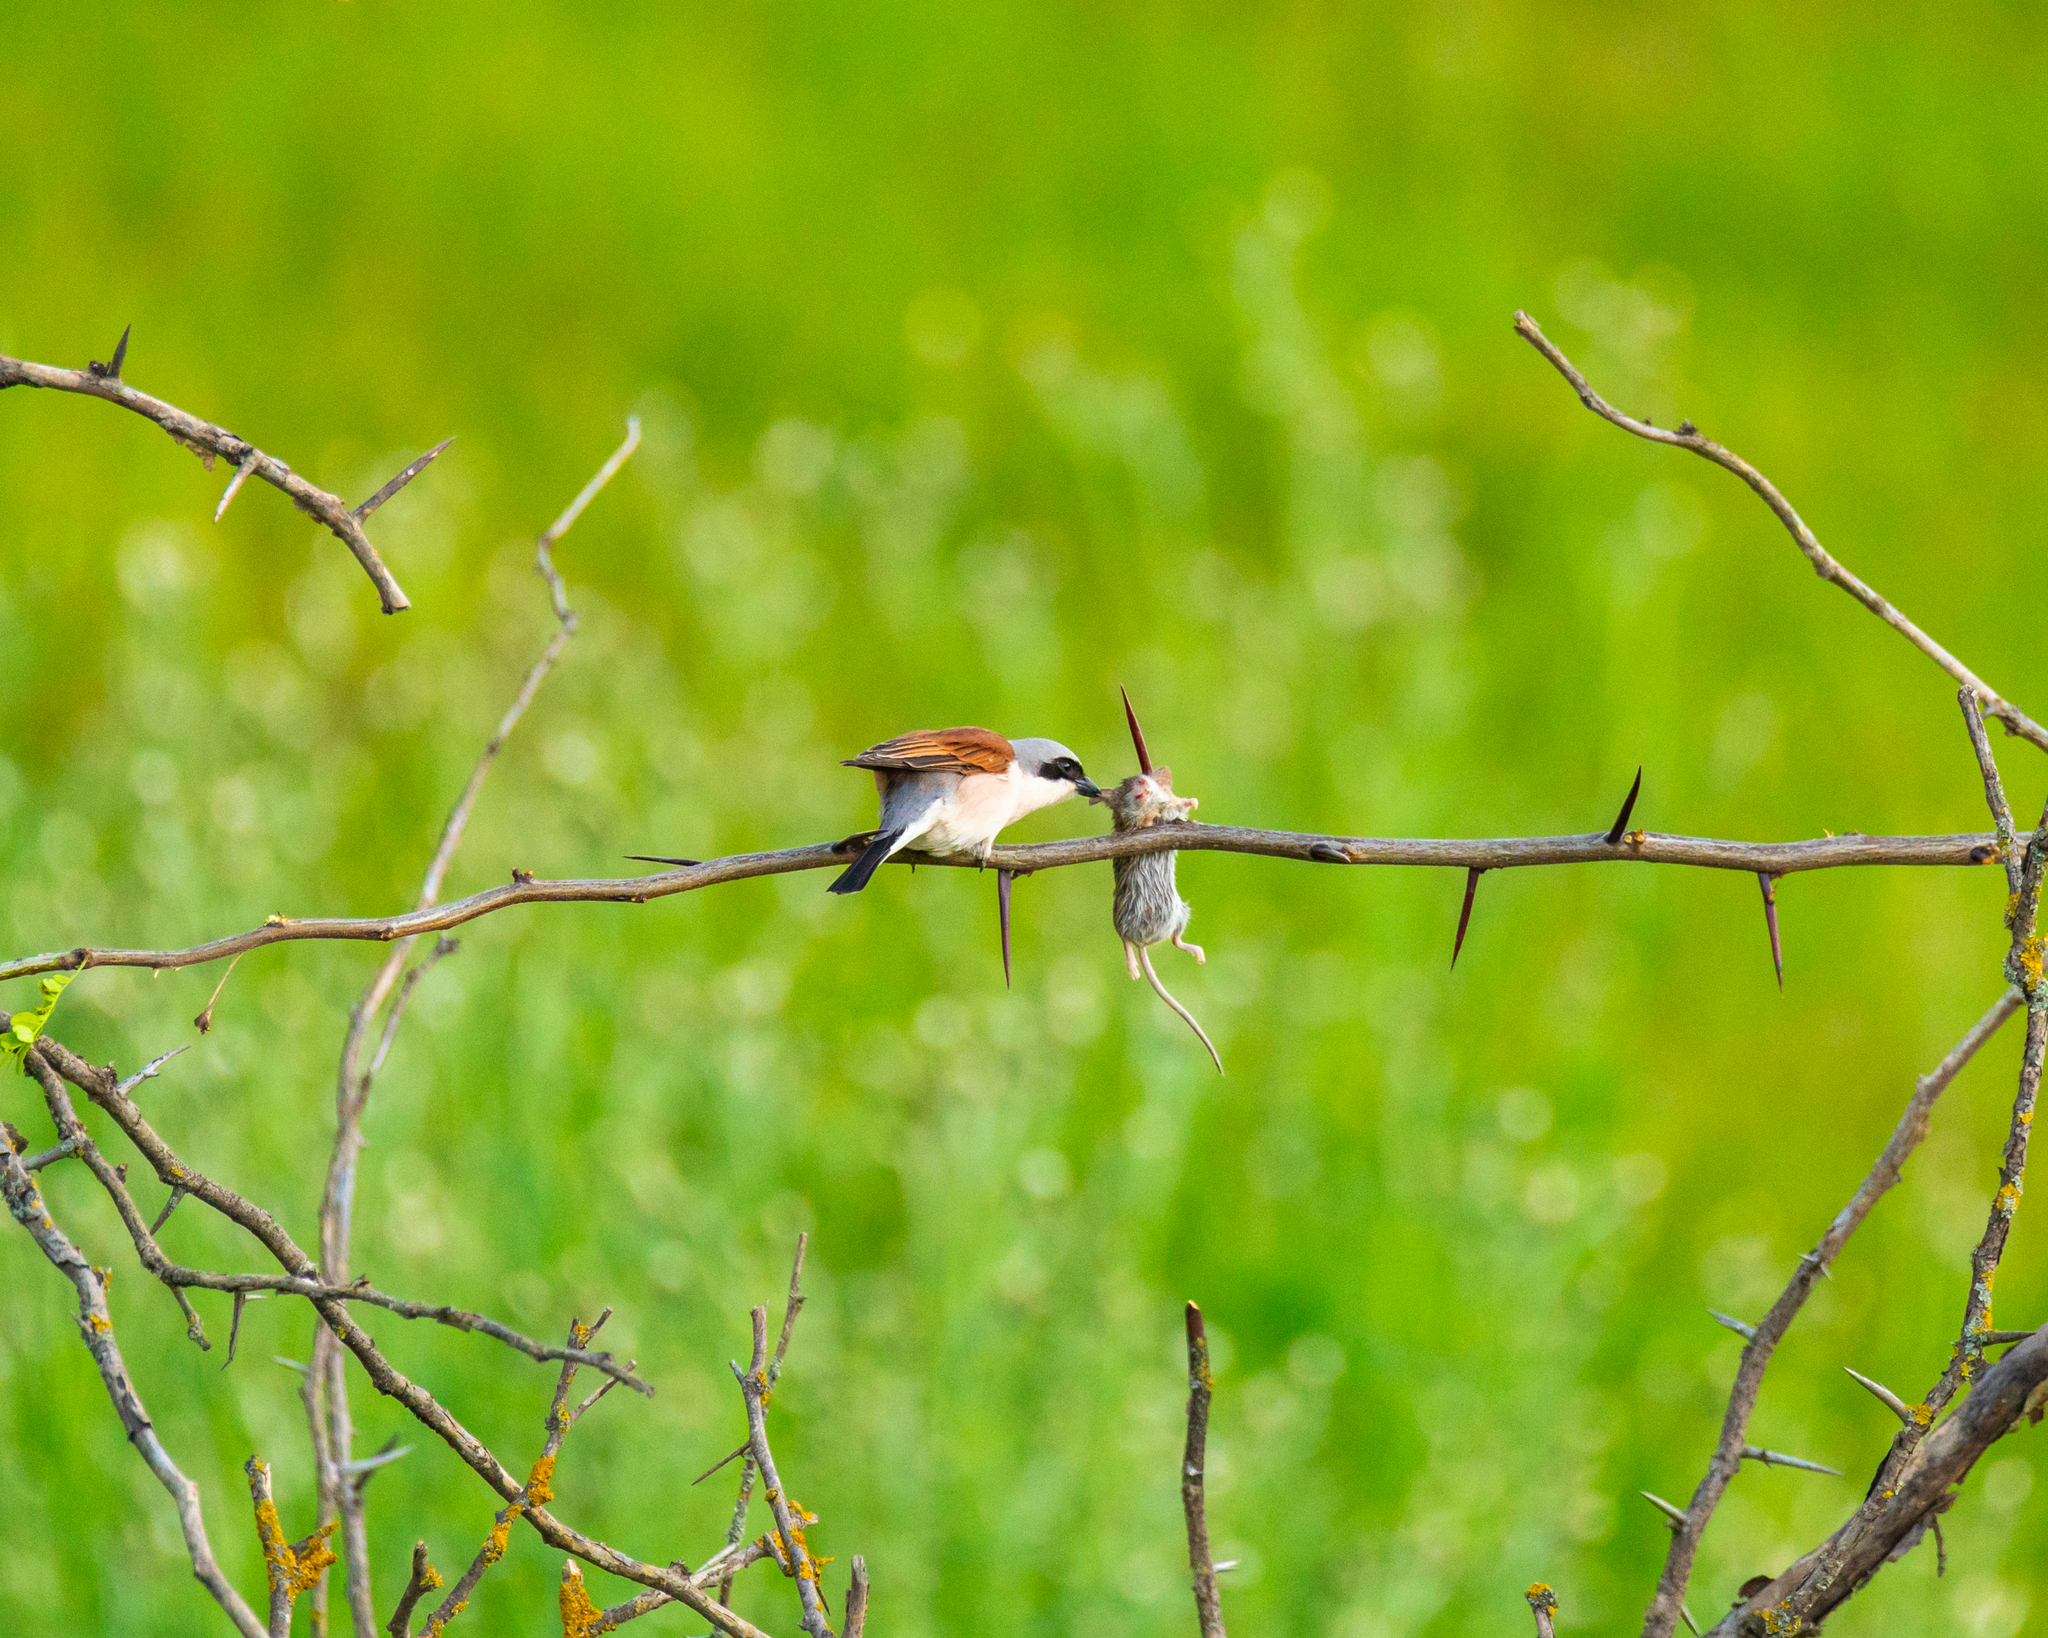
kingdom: Animalia
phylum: Chordata
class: Aves
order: Passeriformes
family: Laniidae
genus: Lanius
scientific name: Lanius collurio
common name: Red-backed shrike
